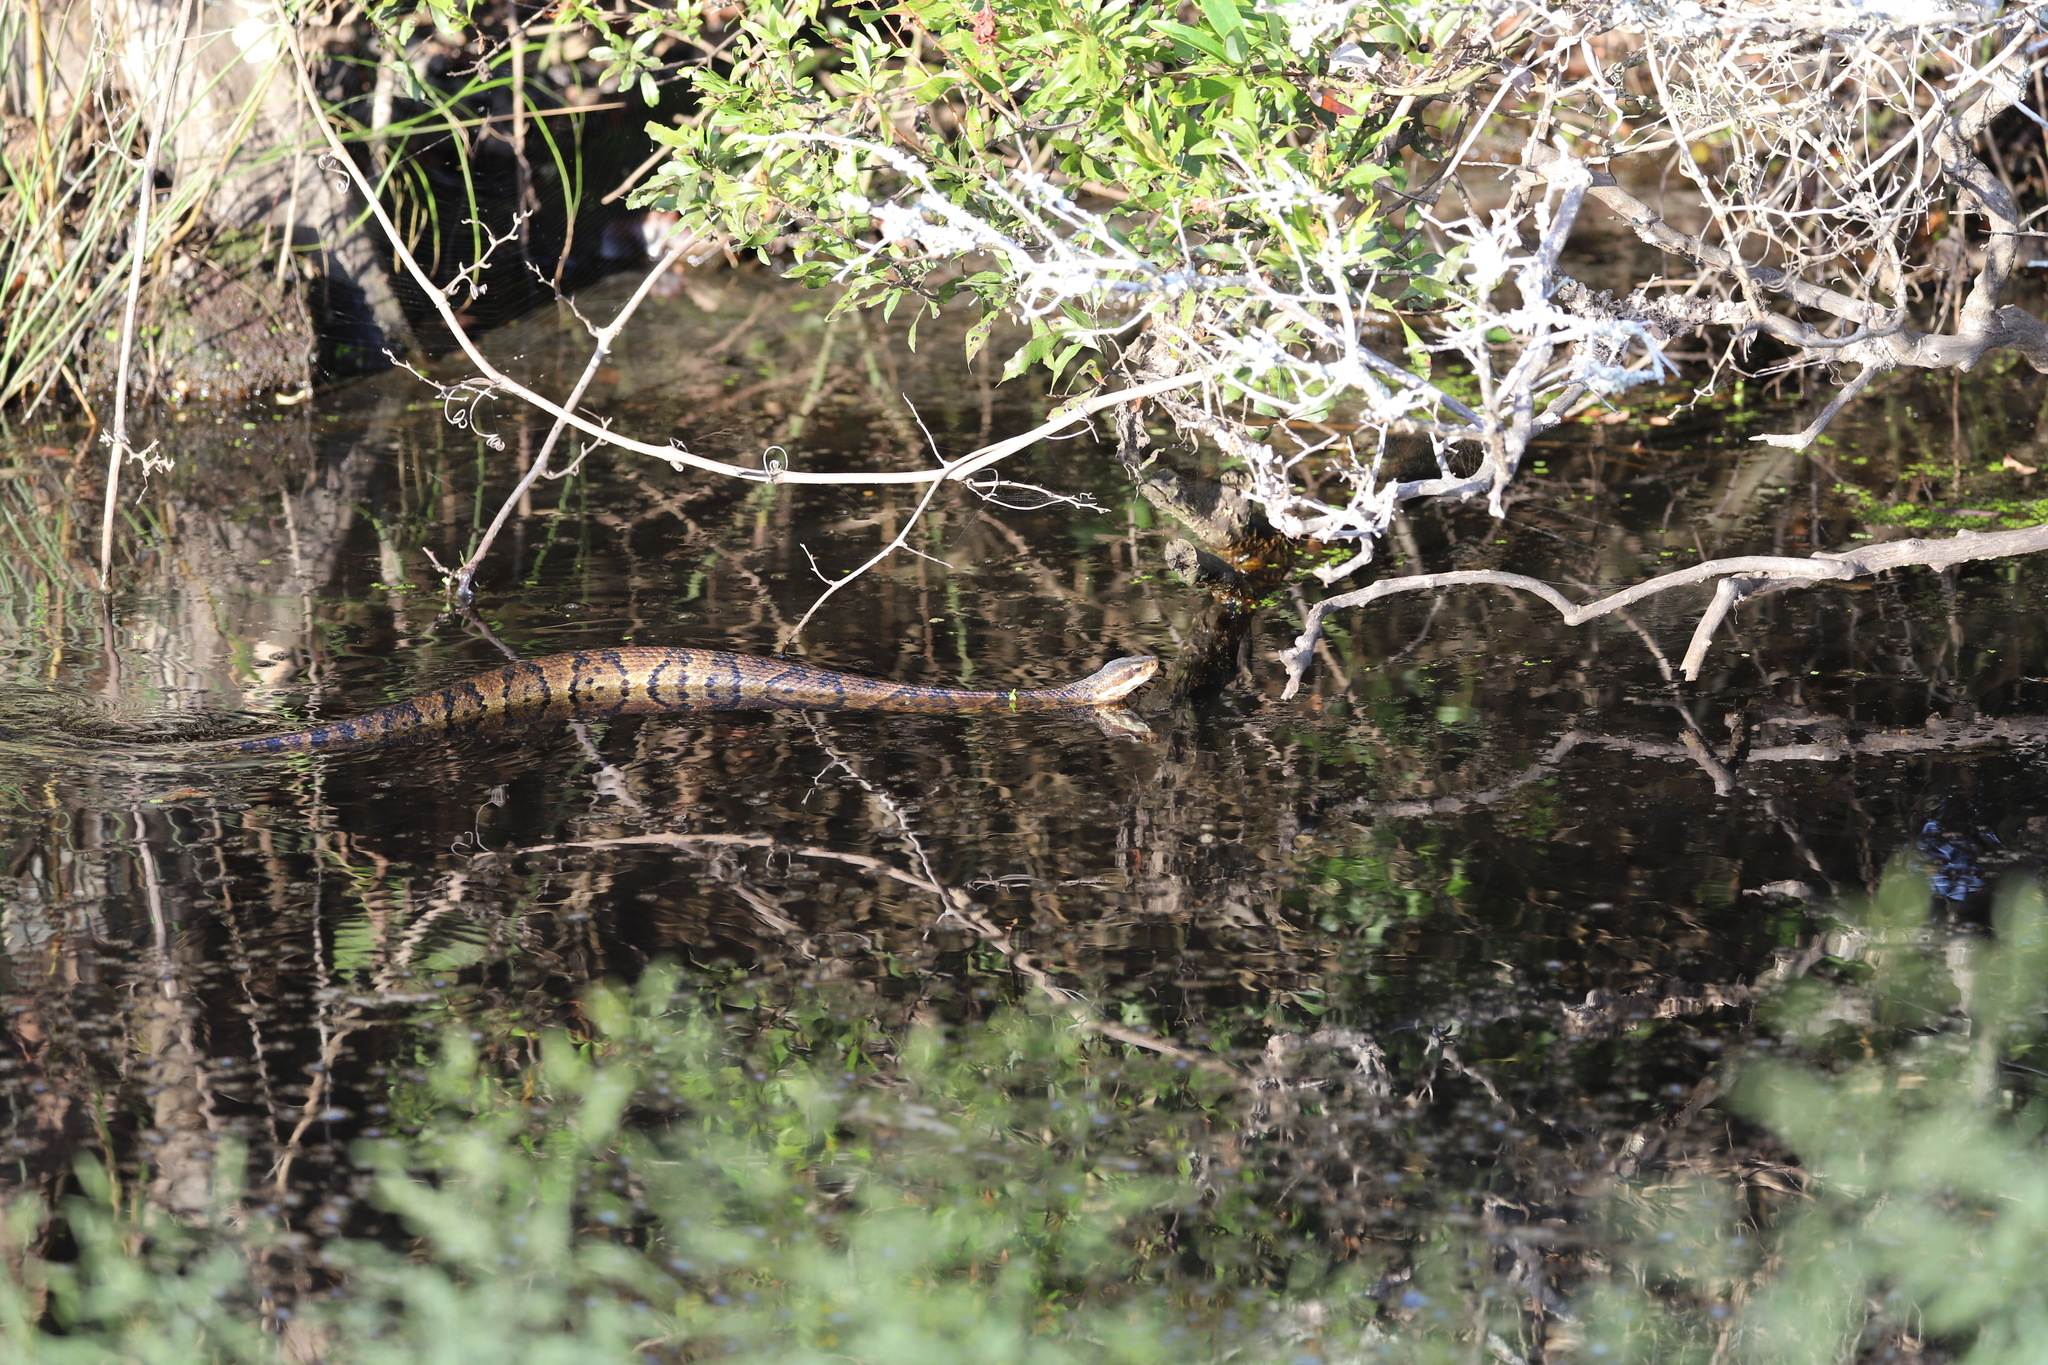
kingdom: Animalia
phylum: Chordata
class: Squamata
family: Viperidae
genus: Agkistrodon
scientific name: Agkistrodon piscivorus
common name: Cottonmouth
